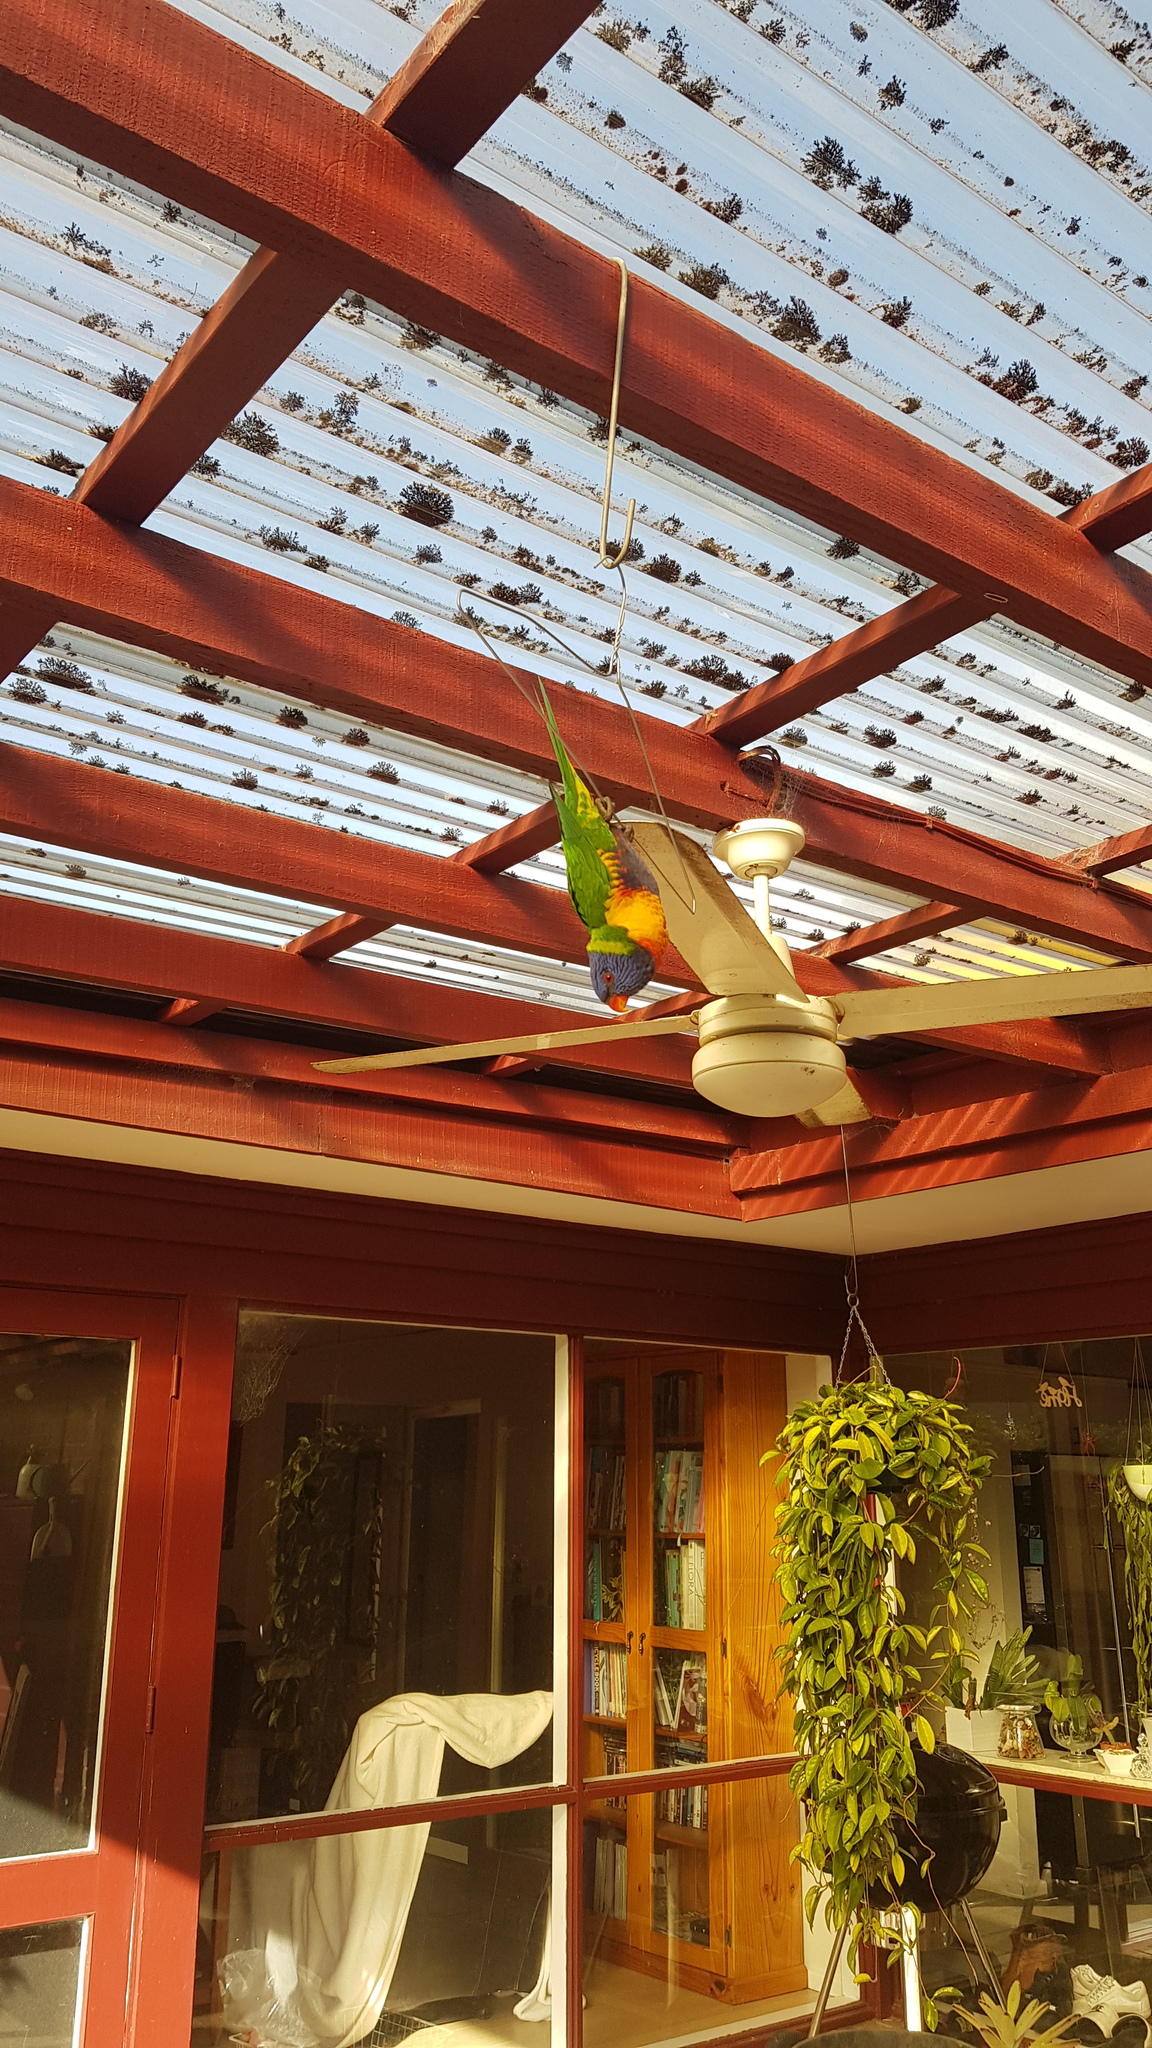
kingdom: Animalia
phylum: Chordata
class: Aves
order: Psittaciformes
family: Psittacidae
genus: Trichoglossus
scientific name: Trichoglossus haematodus
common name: Coconut lorikeet
